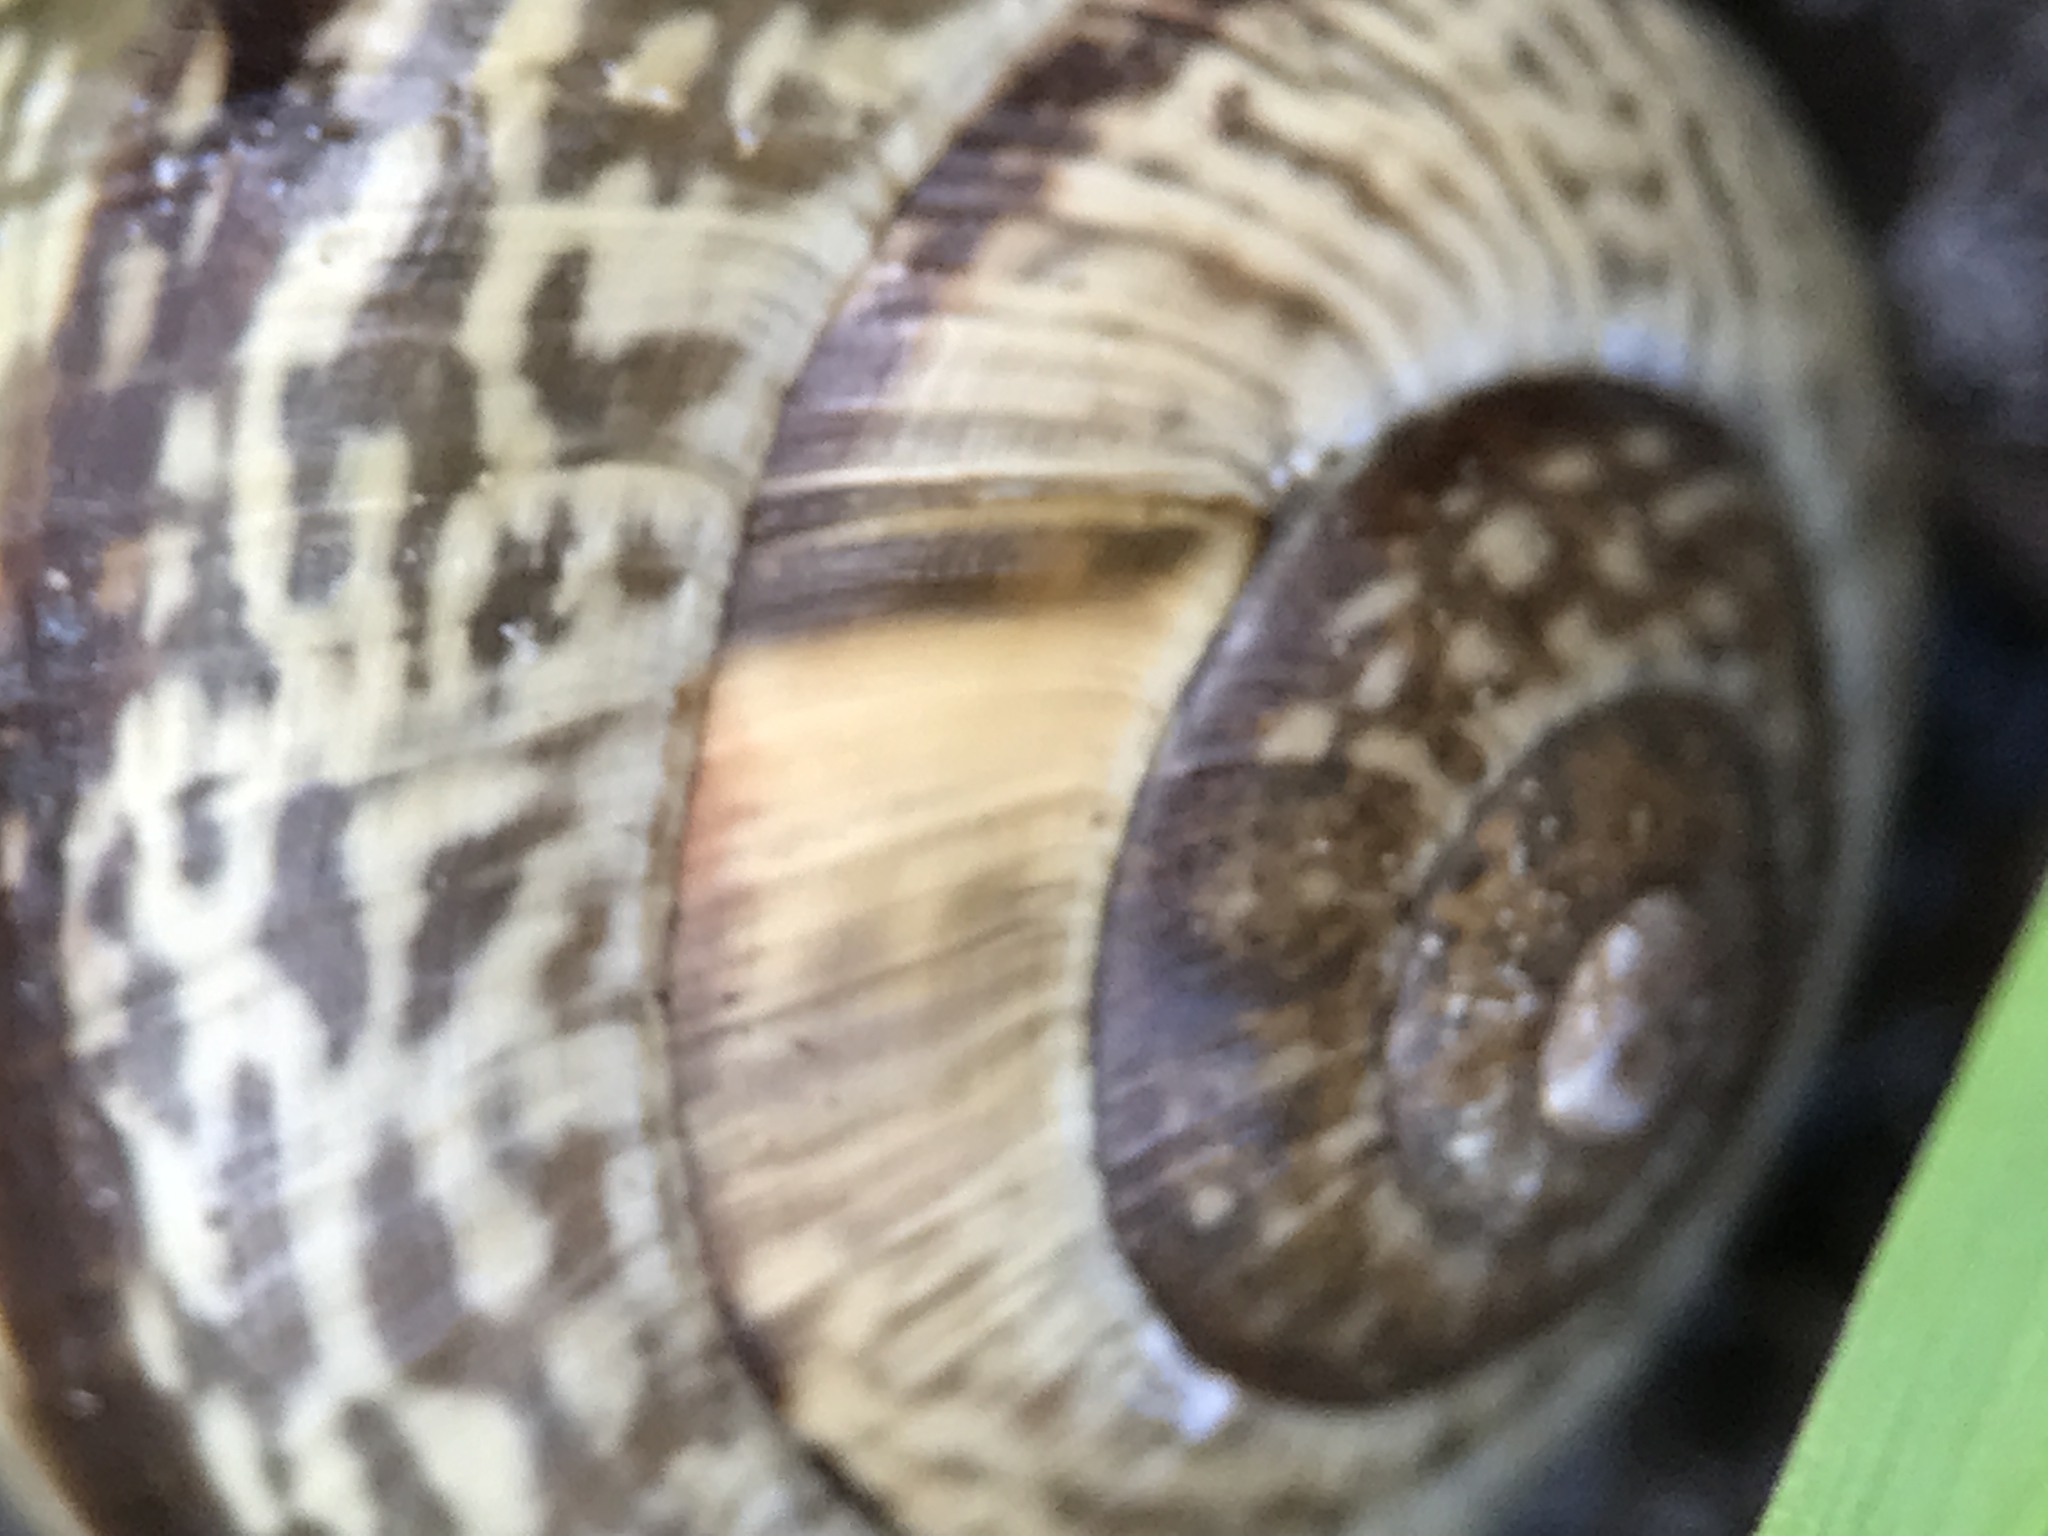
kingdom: Animalia
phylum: Mollusca
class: Gastropoda
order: Stylommatophora
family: Helicidae
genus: Arianta
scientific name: Arianta arbustorum
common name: Copse snail
